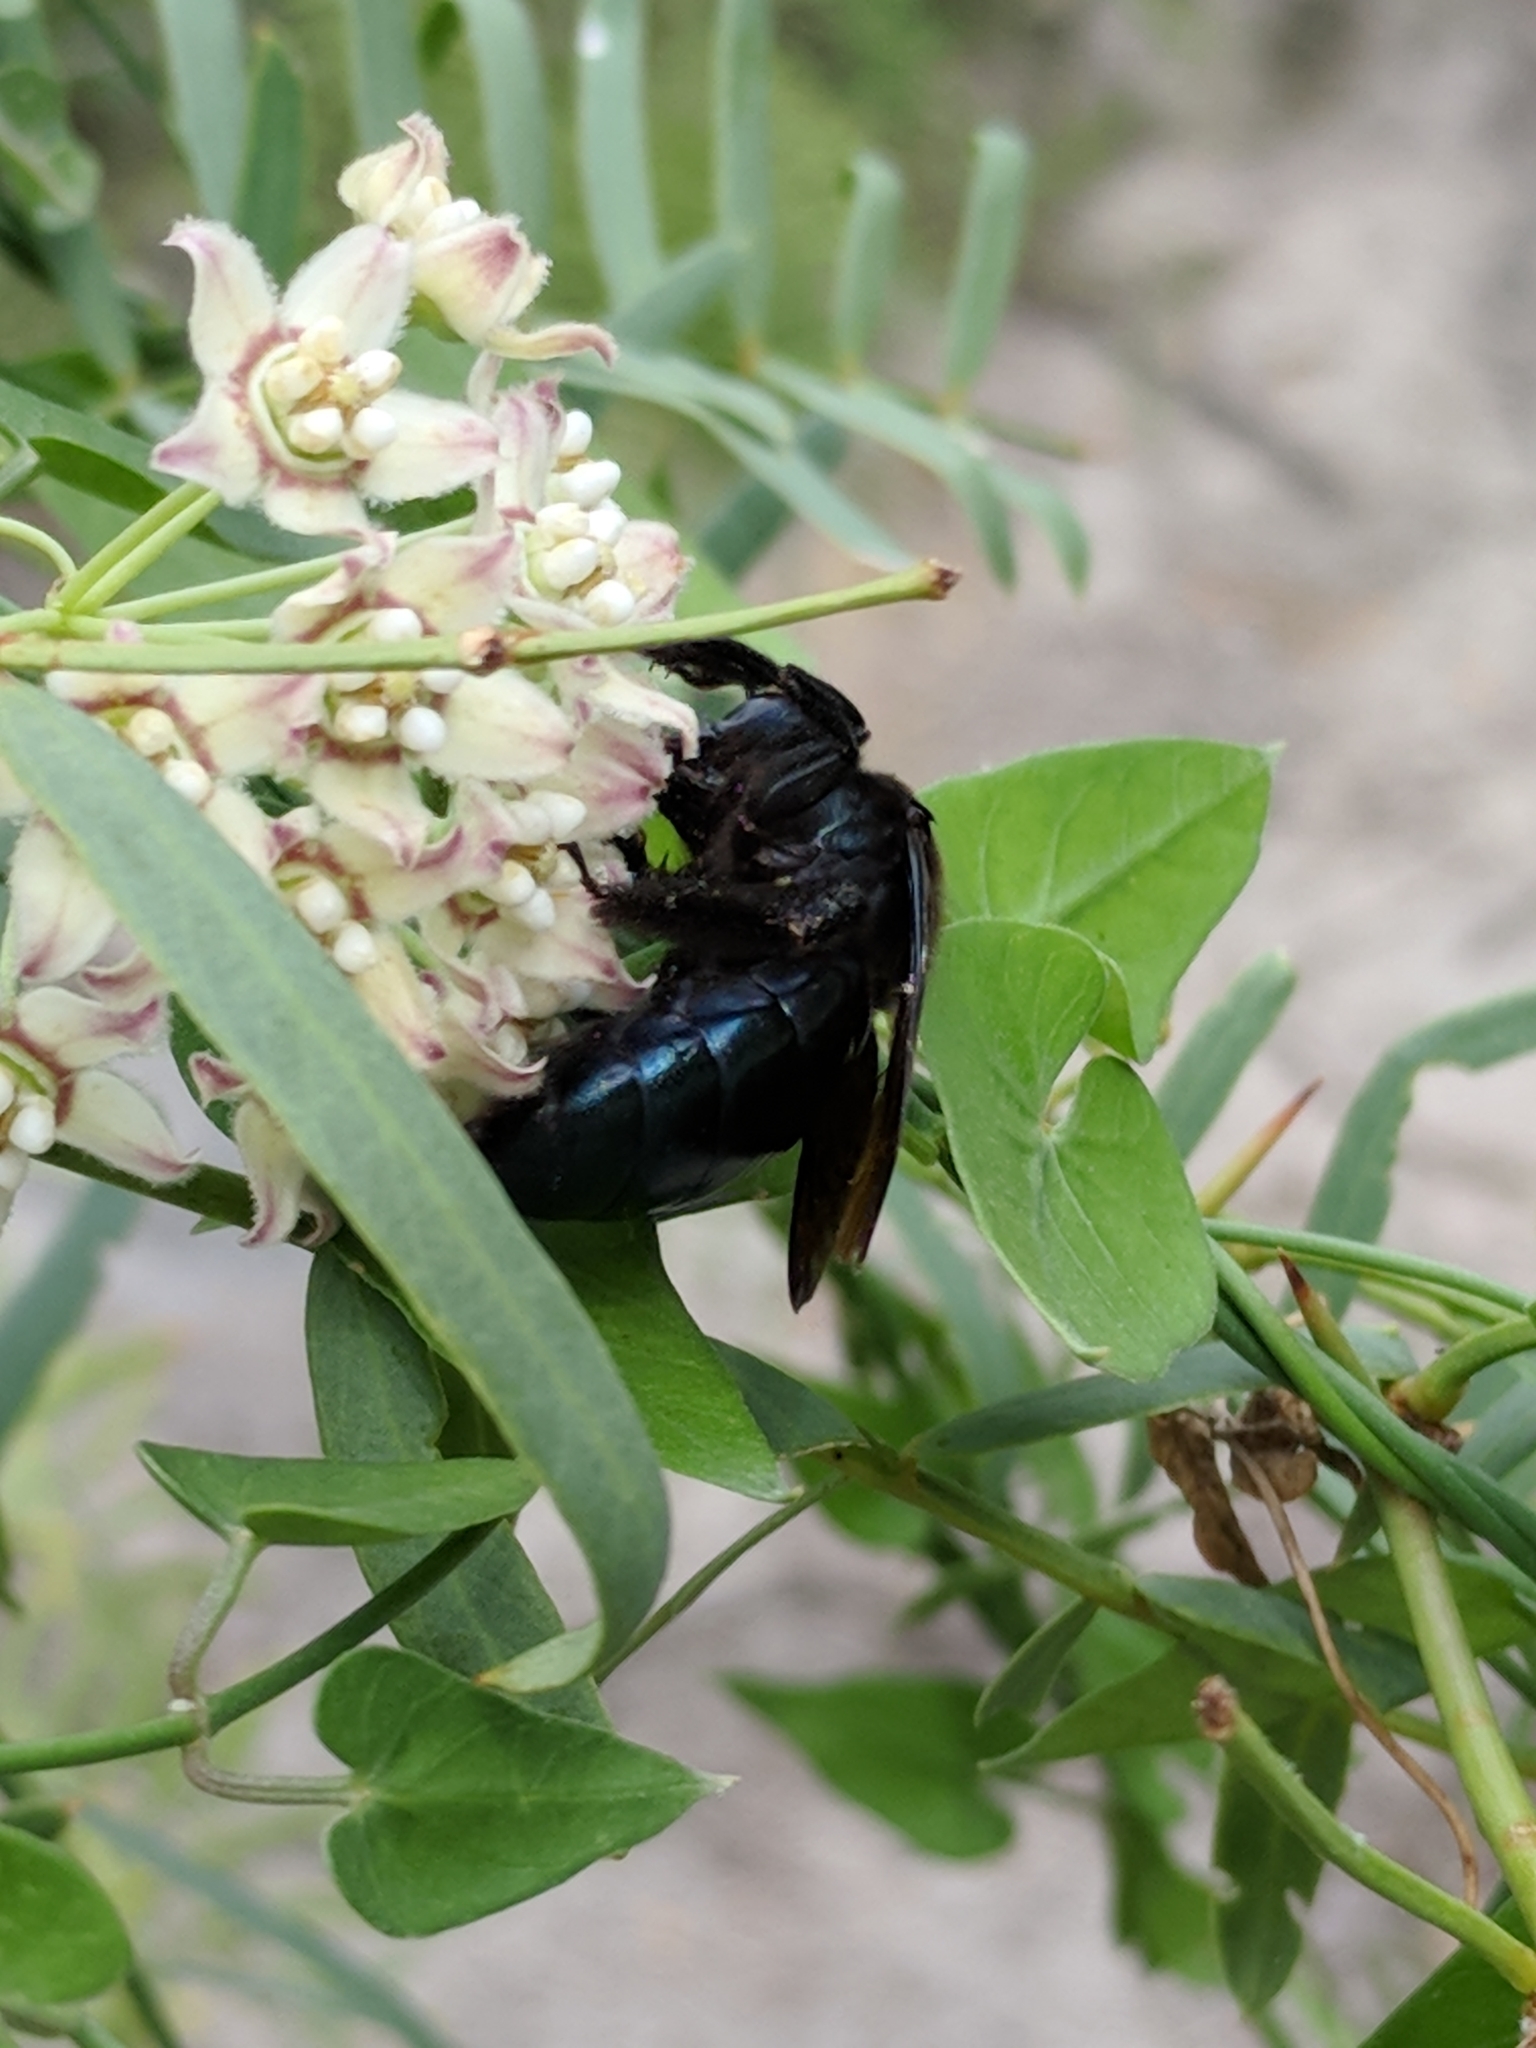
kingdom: Animalia
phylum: Arthropoda
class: Insecta
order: Hymenoptera
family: Apidae
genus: Xylocopa
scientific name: Xylocopa californica
